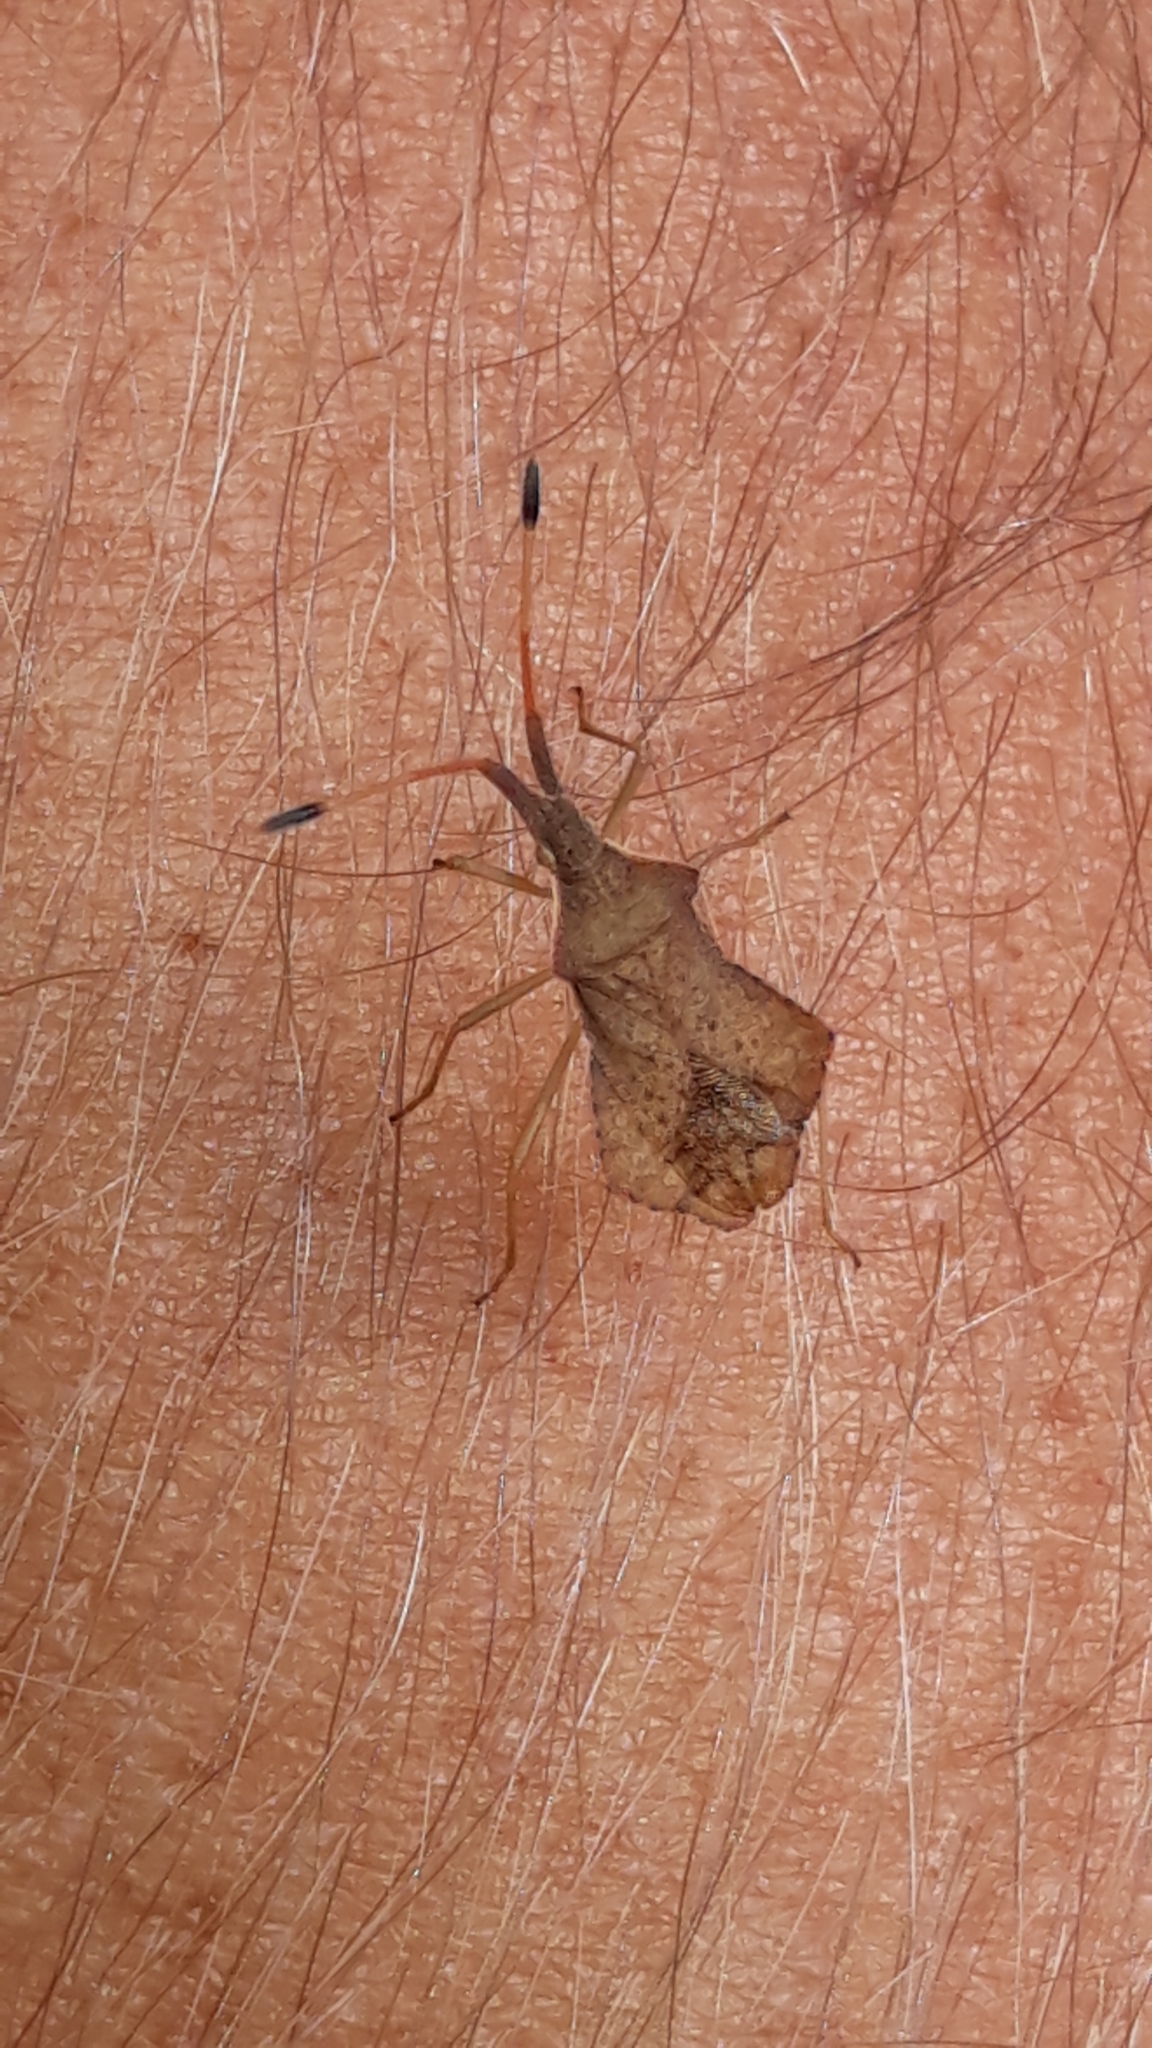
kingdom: Animalia
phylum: Arthropoda
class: Insecta
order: Hemiptera
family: Coreidae
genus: Syromastus
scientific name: Syromastus rhombeus
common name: Rhombic leatherbug
